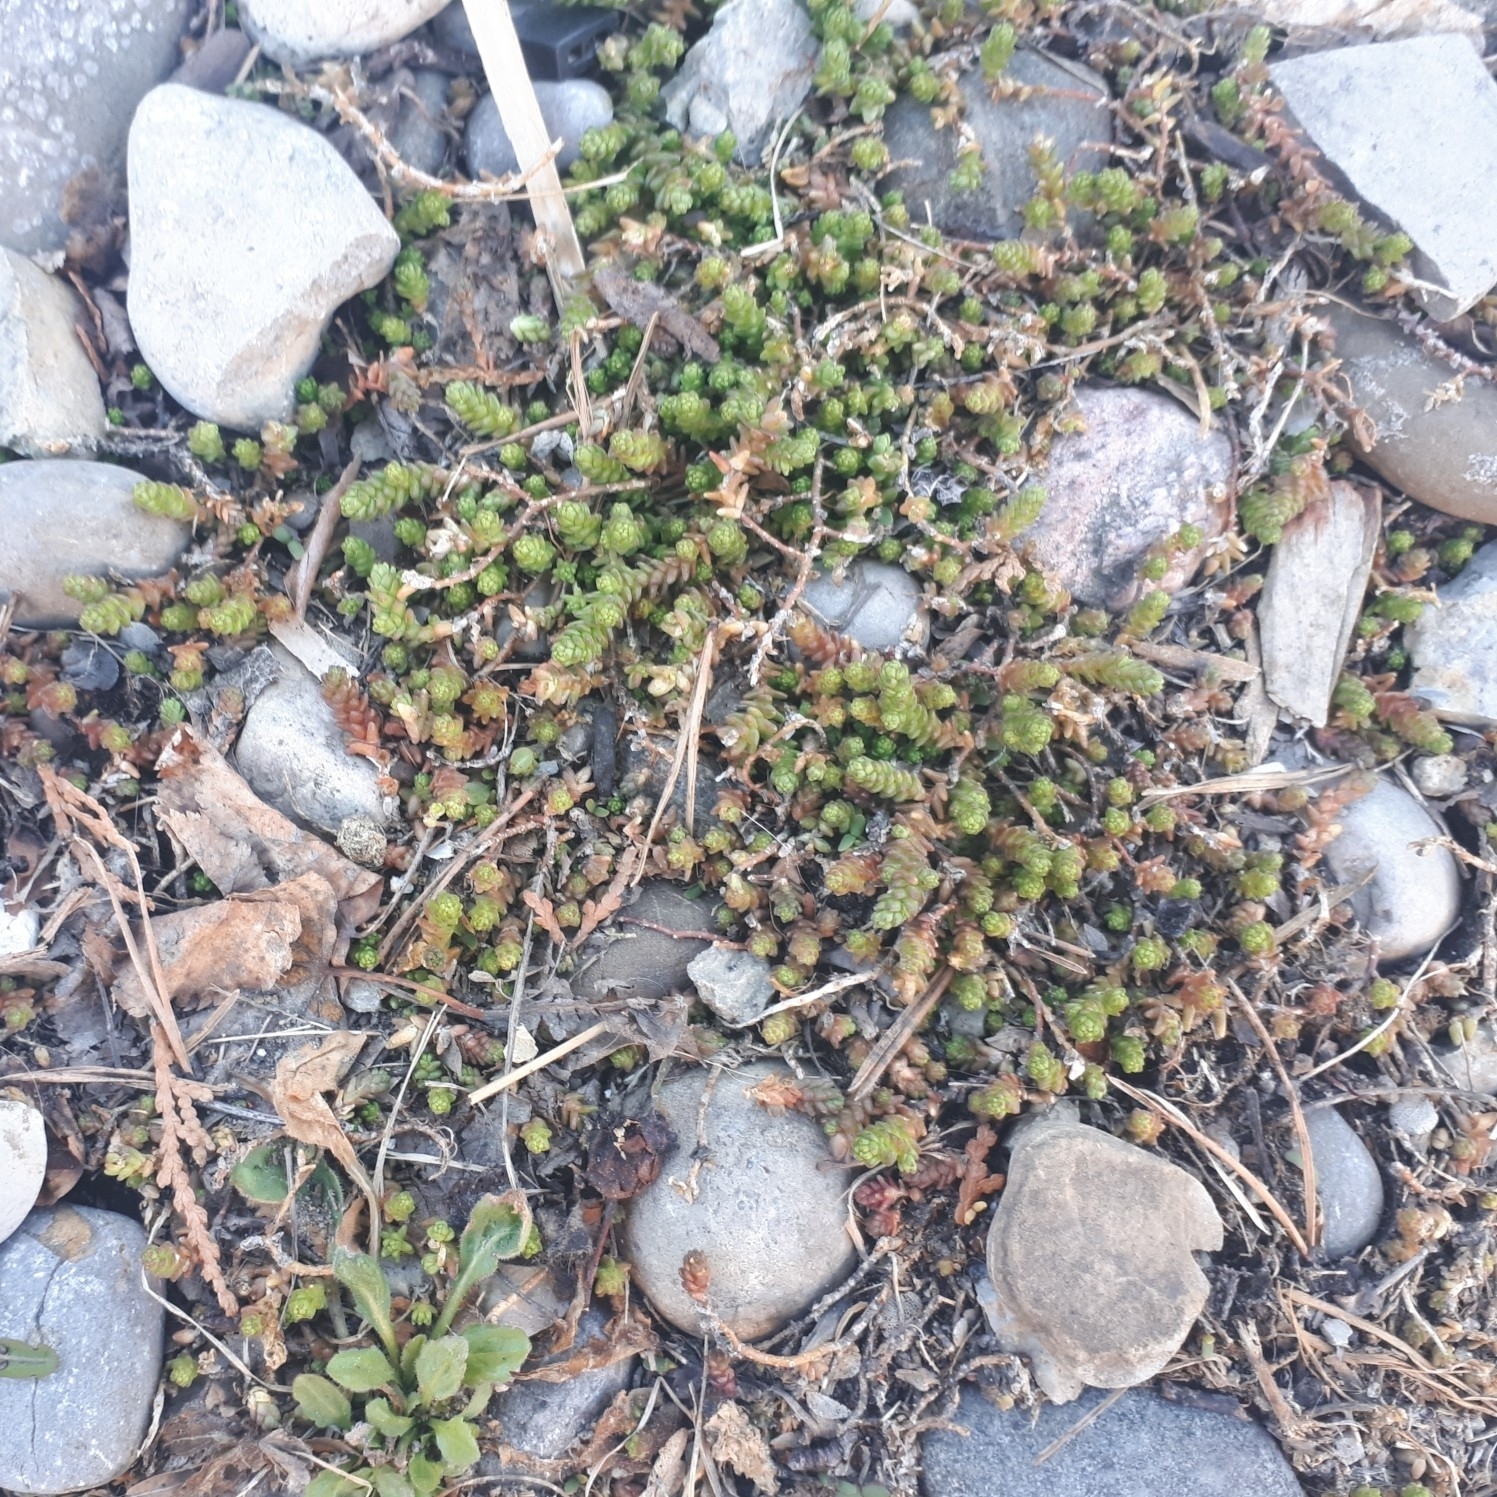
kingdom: Plantae
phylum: Tracheophyta
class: Magnoliopsida
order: Saxifragales
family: Crassulaceae
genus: Sedum
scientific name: Sedum acre
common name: Biting stonecrop
